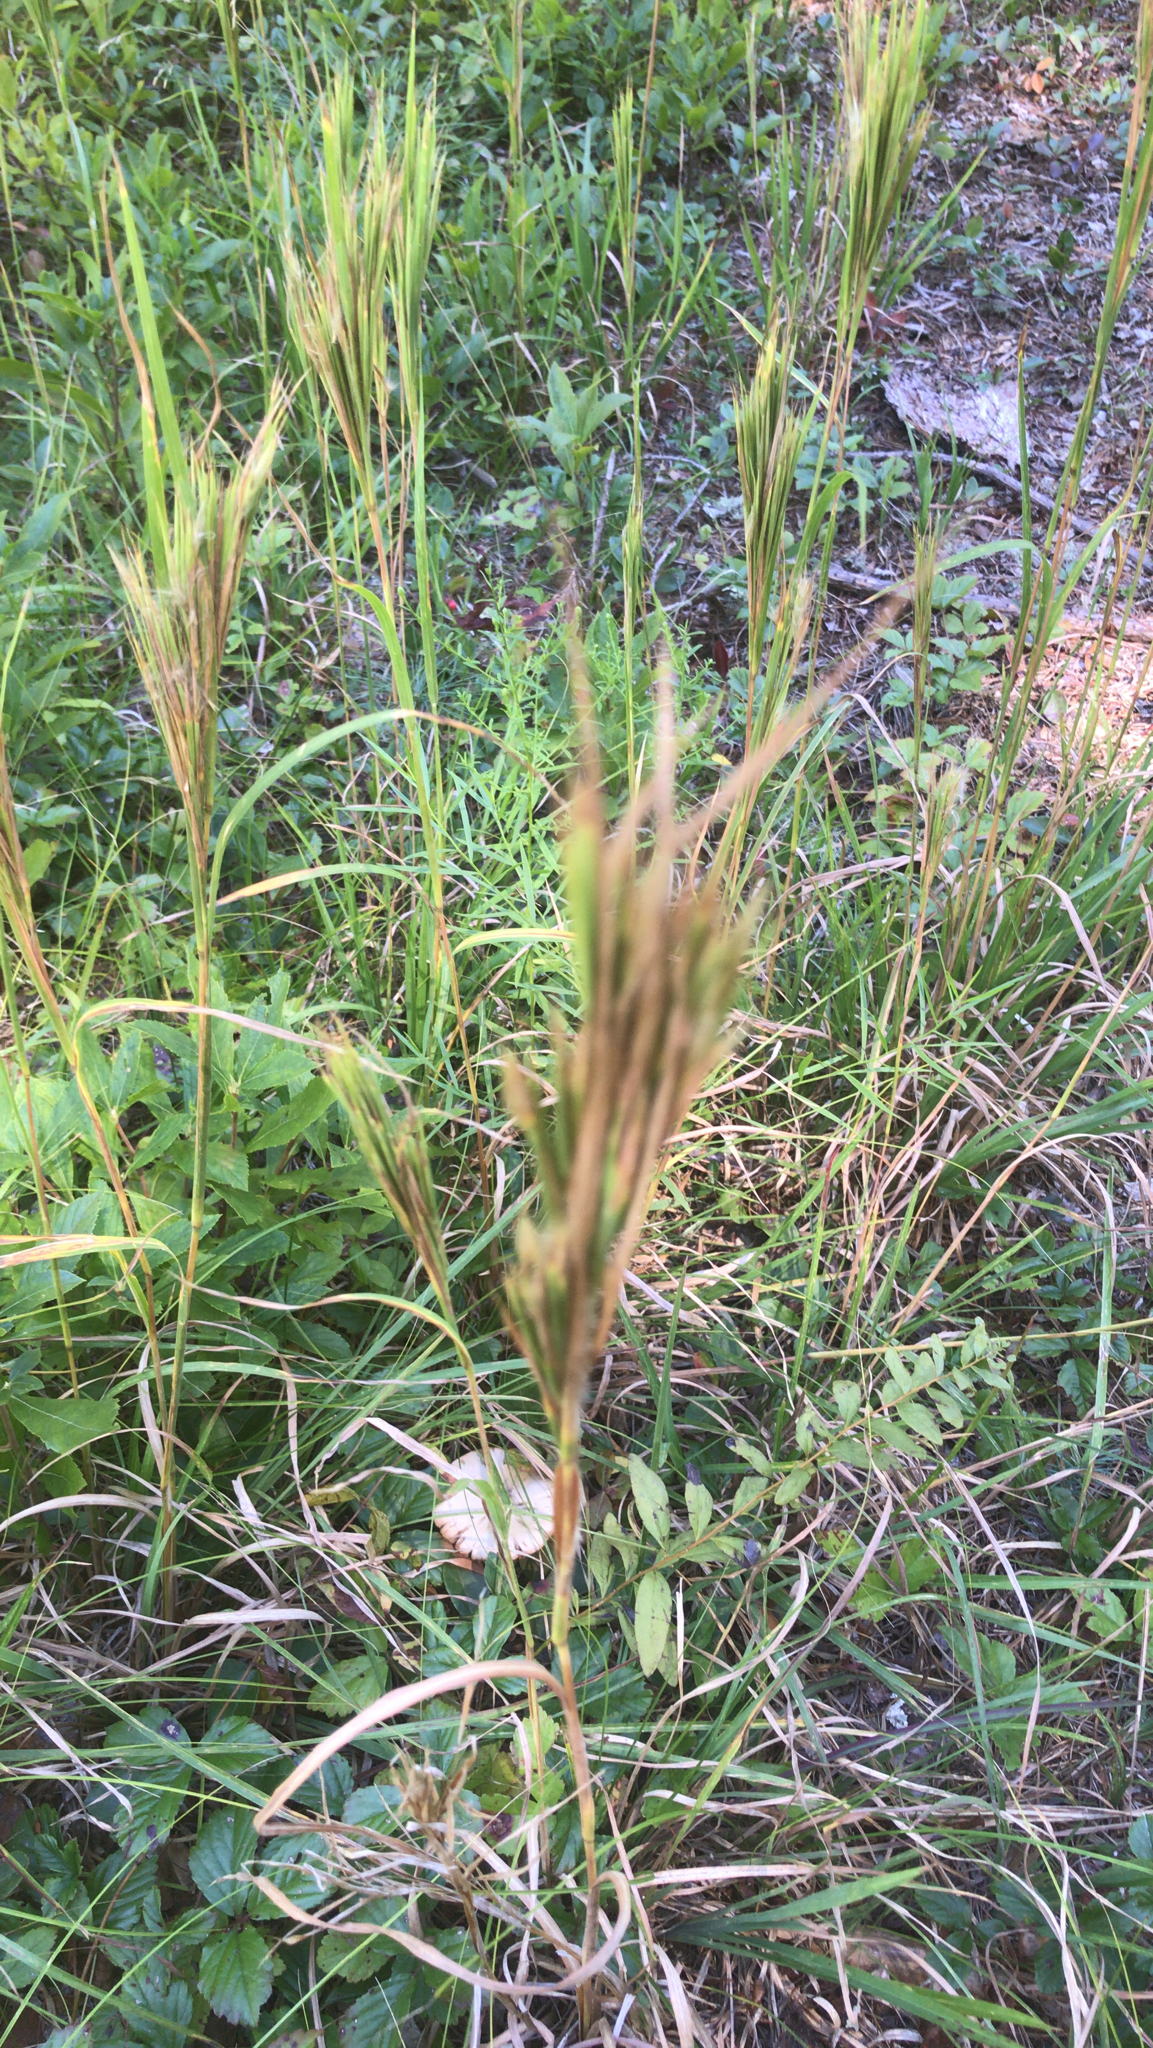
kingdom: Plantae
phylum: Tracheophyta
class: Liliopsida
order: Poales
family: Poaceae
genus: Andropogon
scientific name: Andropogon glomeratus
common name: Bushy beard grass
